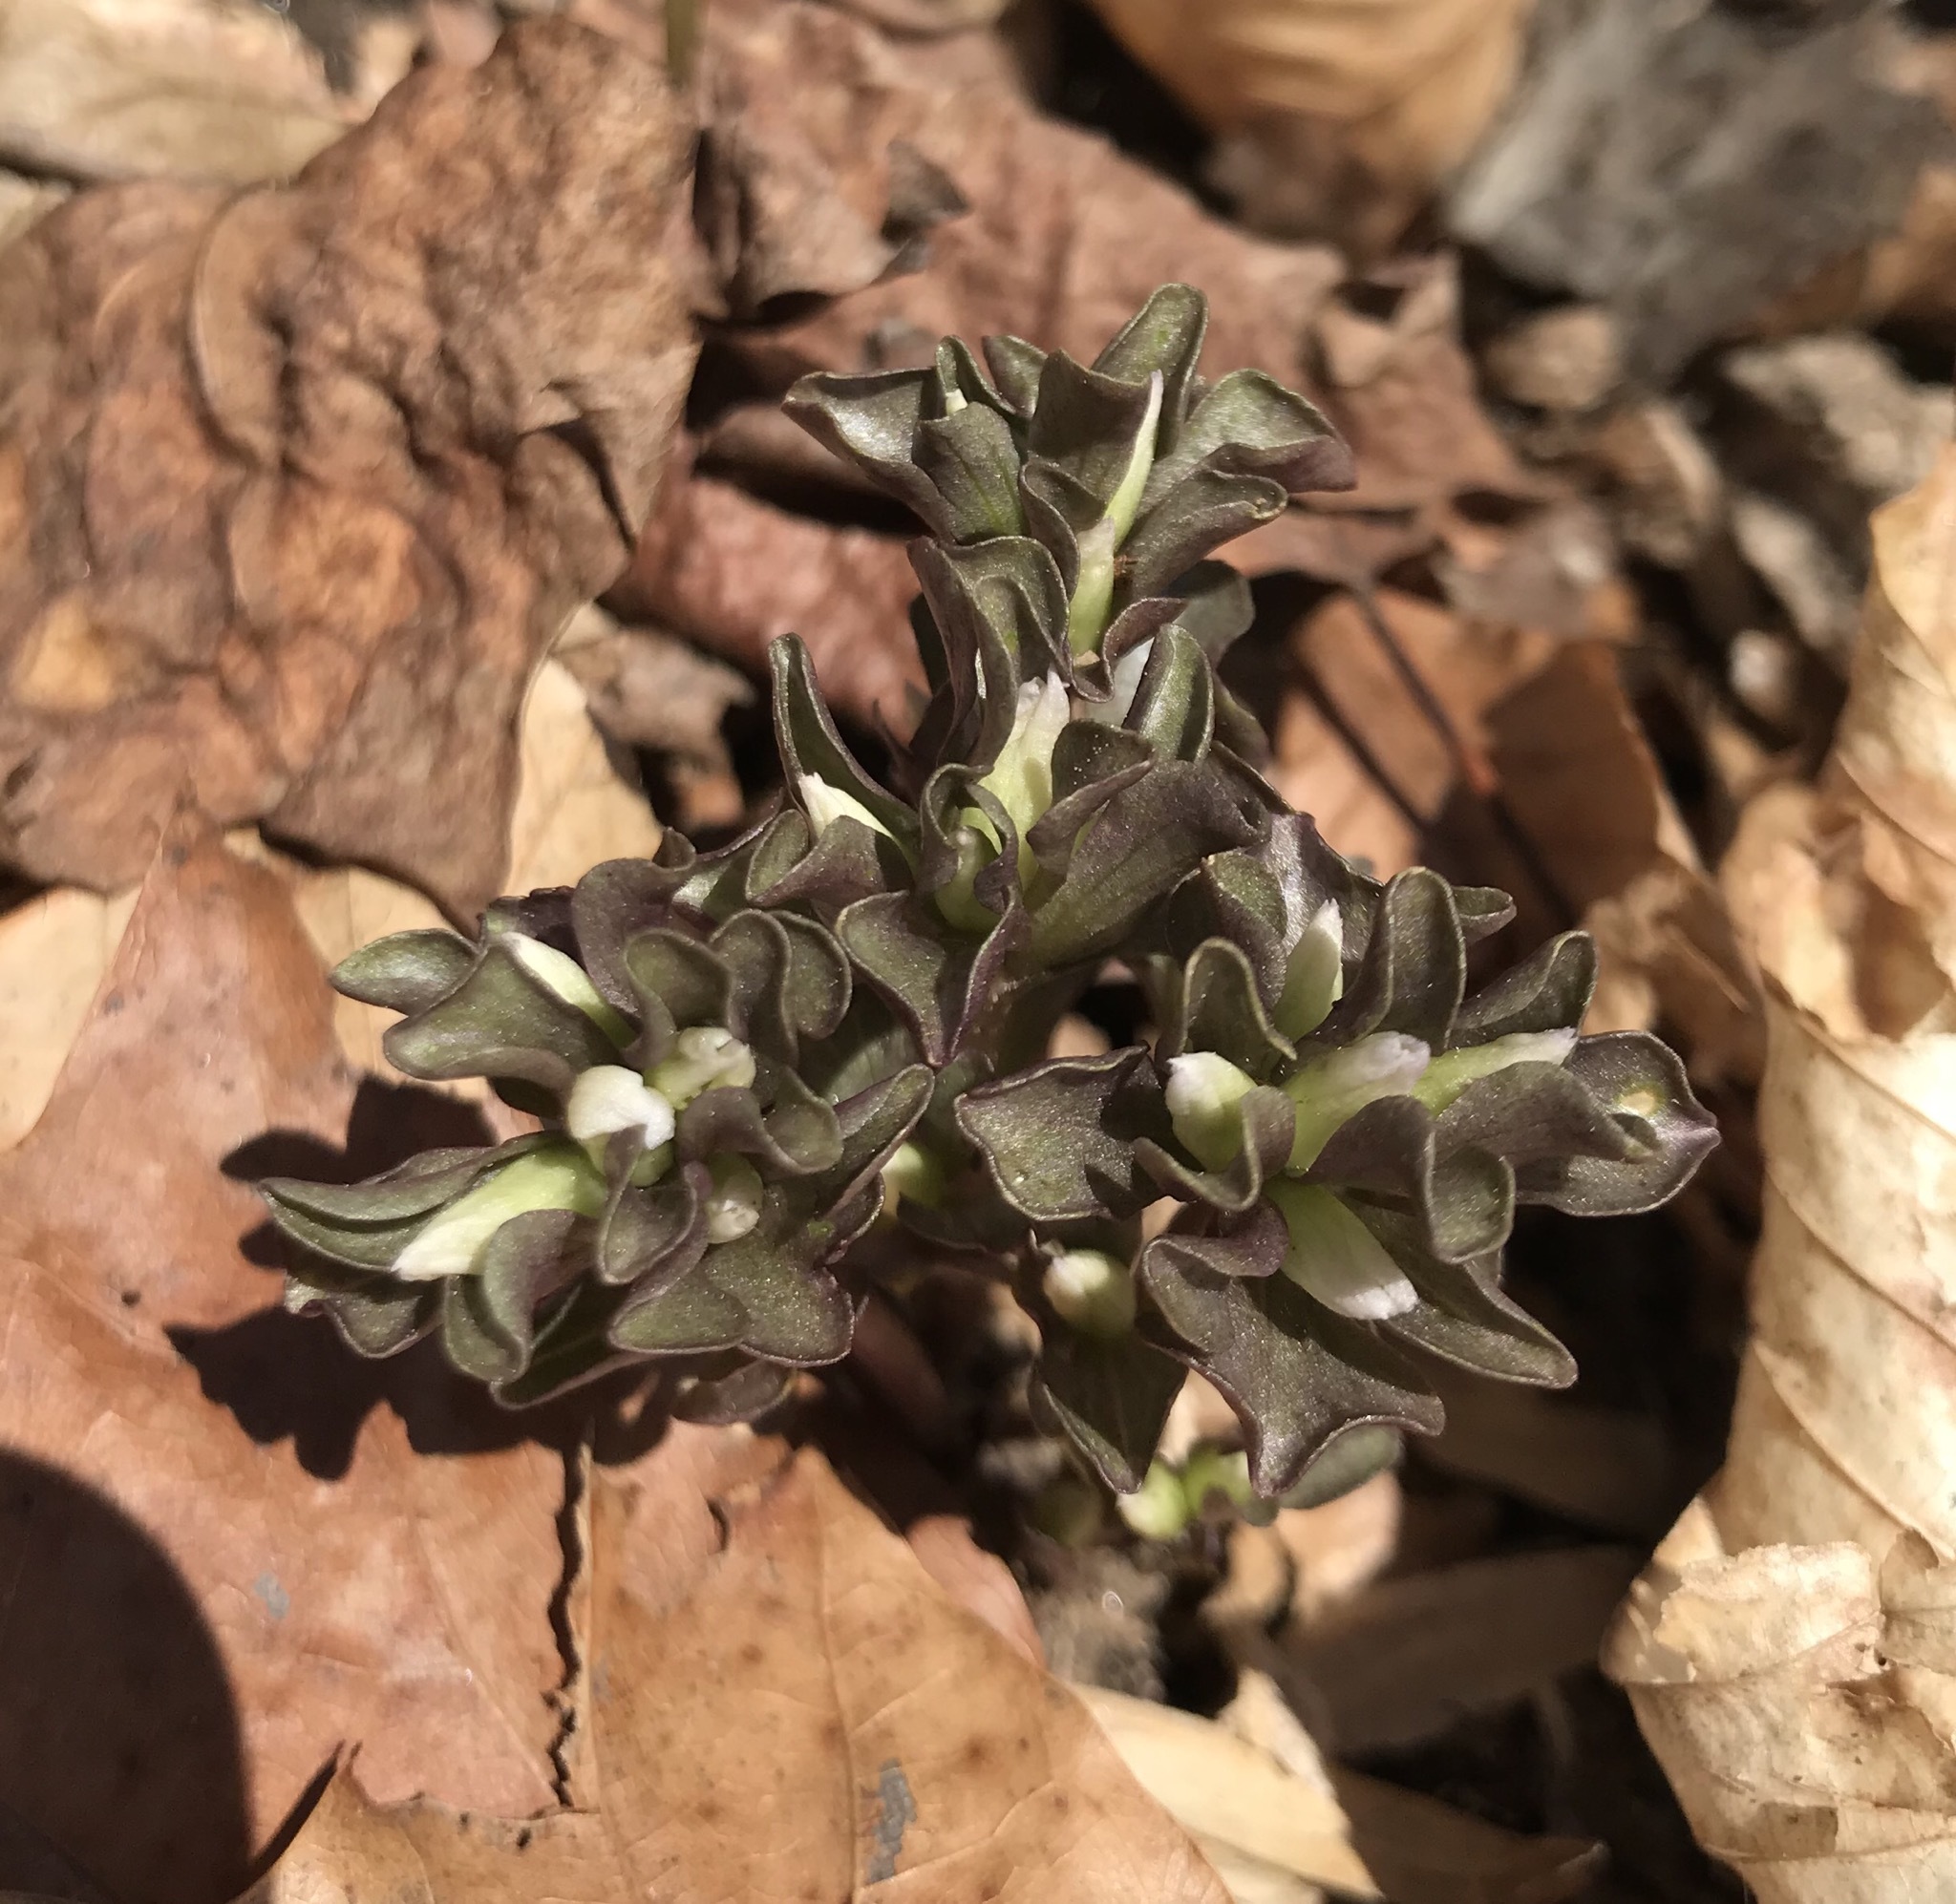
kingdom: Plantae
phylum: Tracheophyta
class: Magnoliopsida
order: Gentianales
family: Gentianaceae
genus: Obolaria
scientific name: Obolaria virginica
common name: Pennywort
